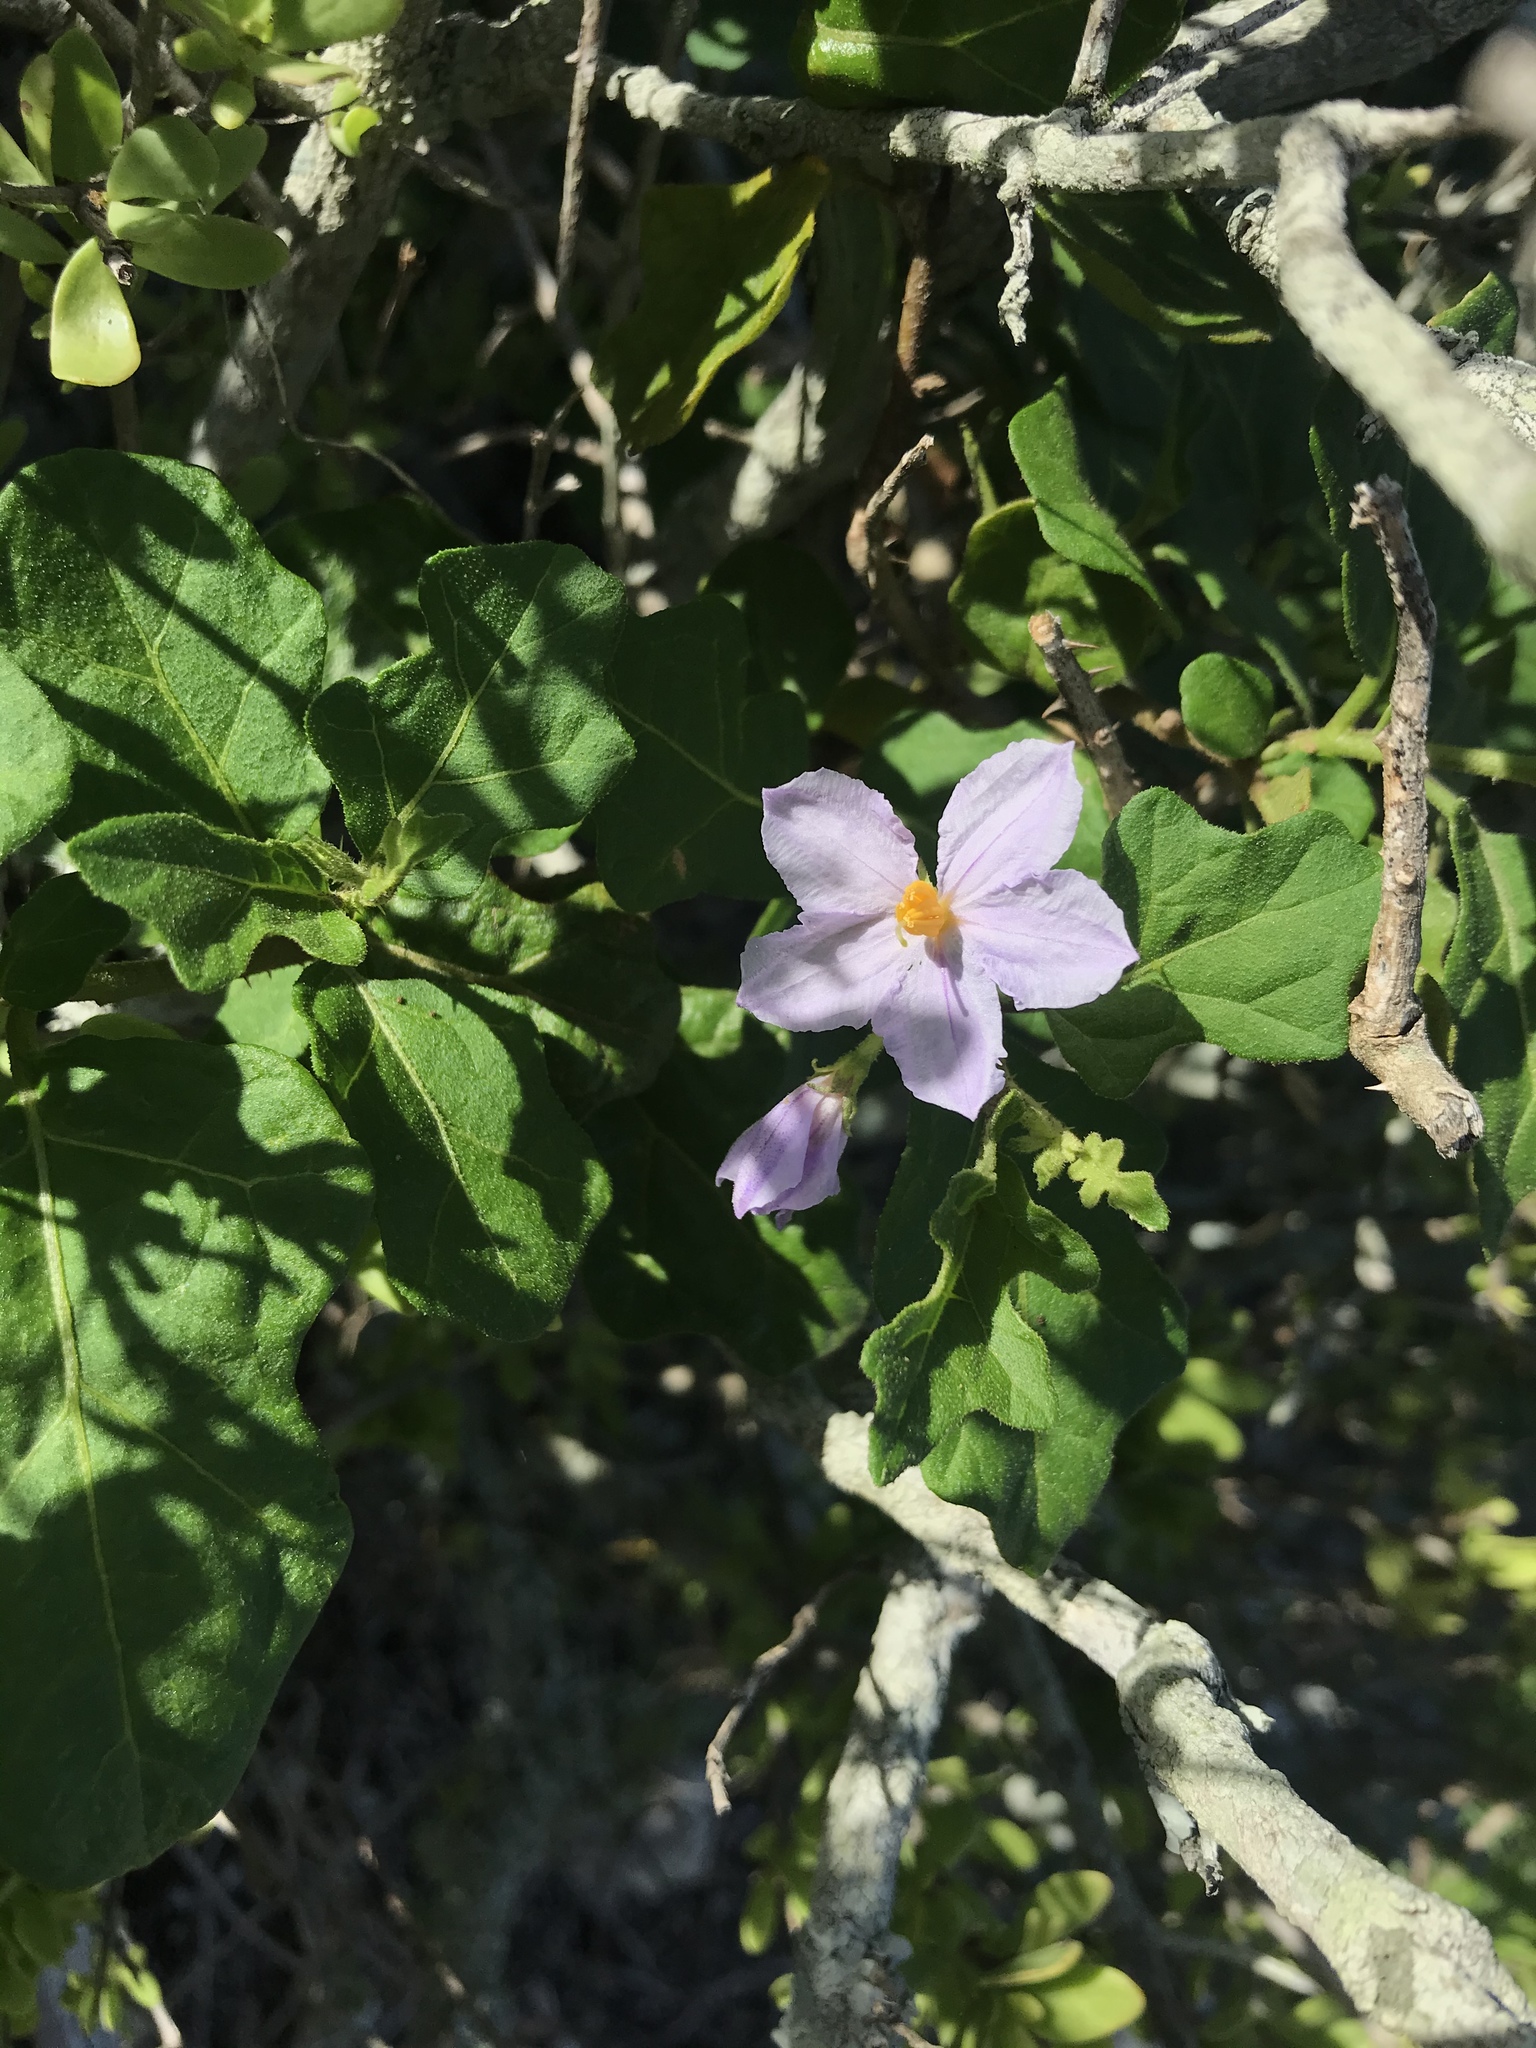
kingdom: Plantae
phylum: Tracheophyta
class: Magnoliopsida
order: Solanales
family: Solanaceae
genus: Solanum
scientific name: Solanum rubetorum
